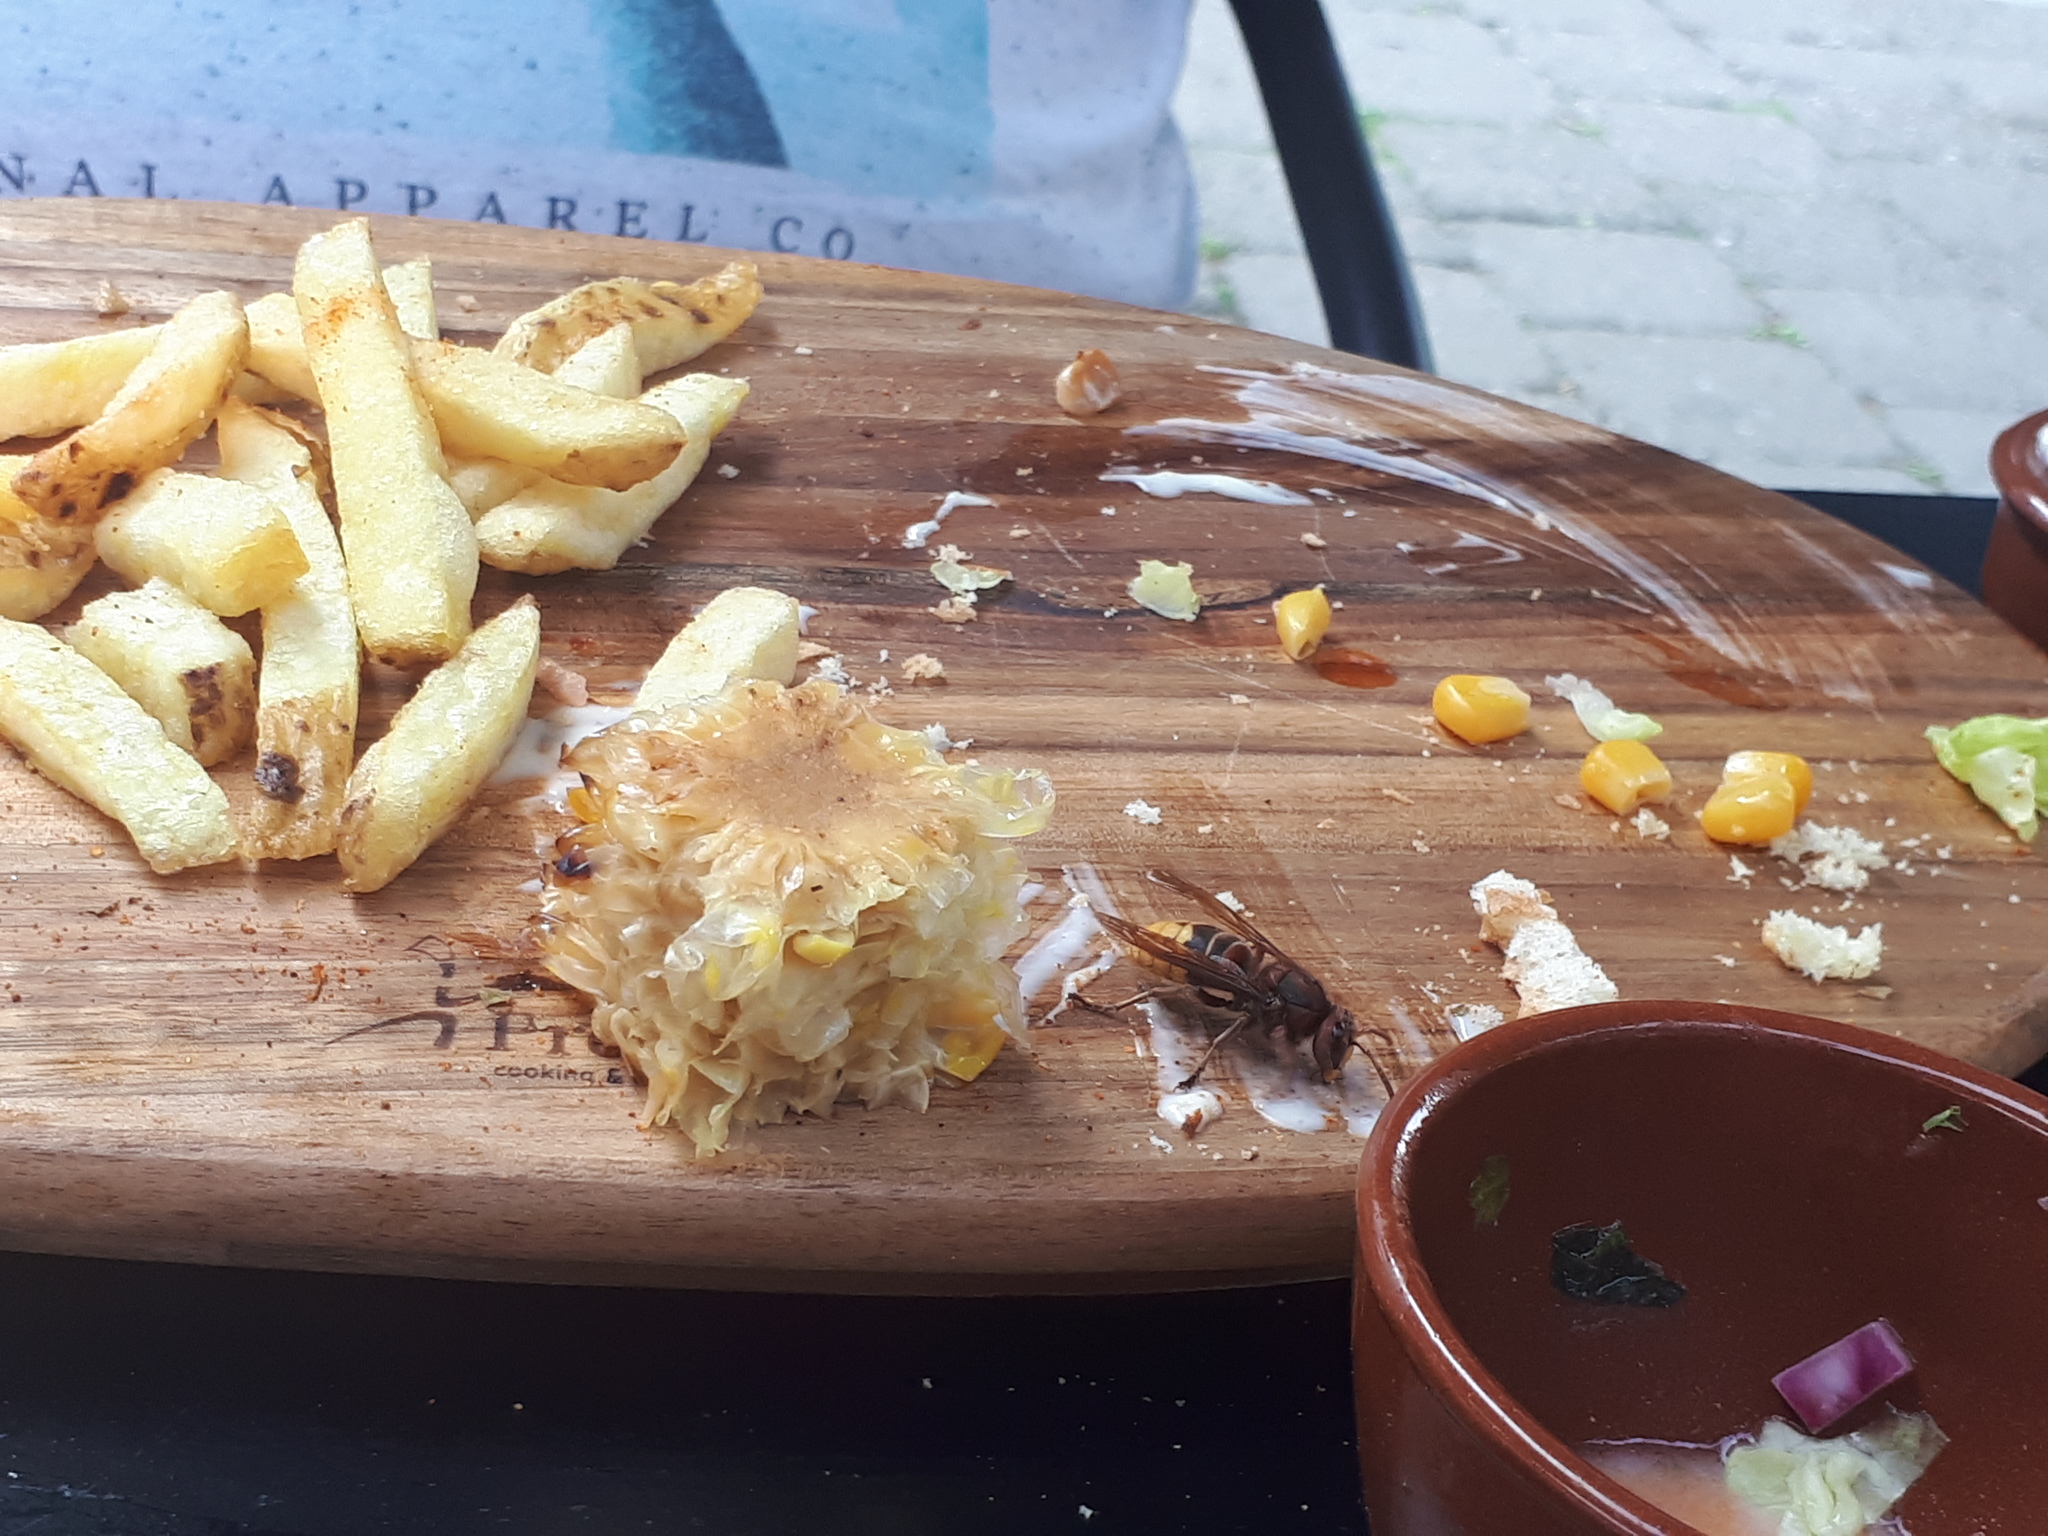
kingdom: Animalia
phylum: Arthropoda
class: Insecta
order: Hymenoptera
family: Vespidae
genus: Vespa
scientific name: Vespa crabro
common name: Hornet
